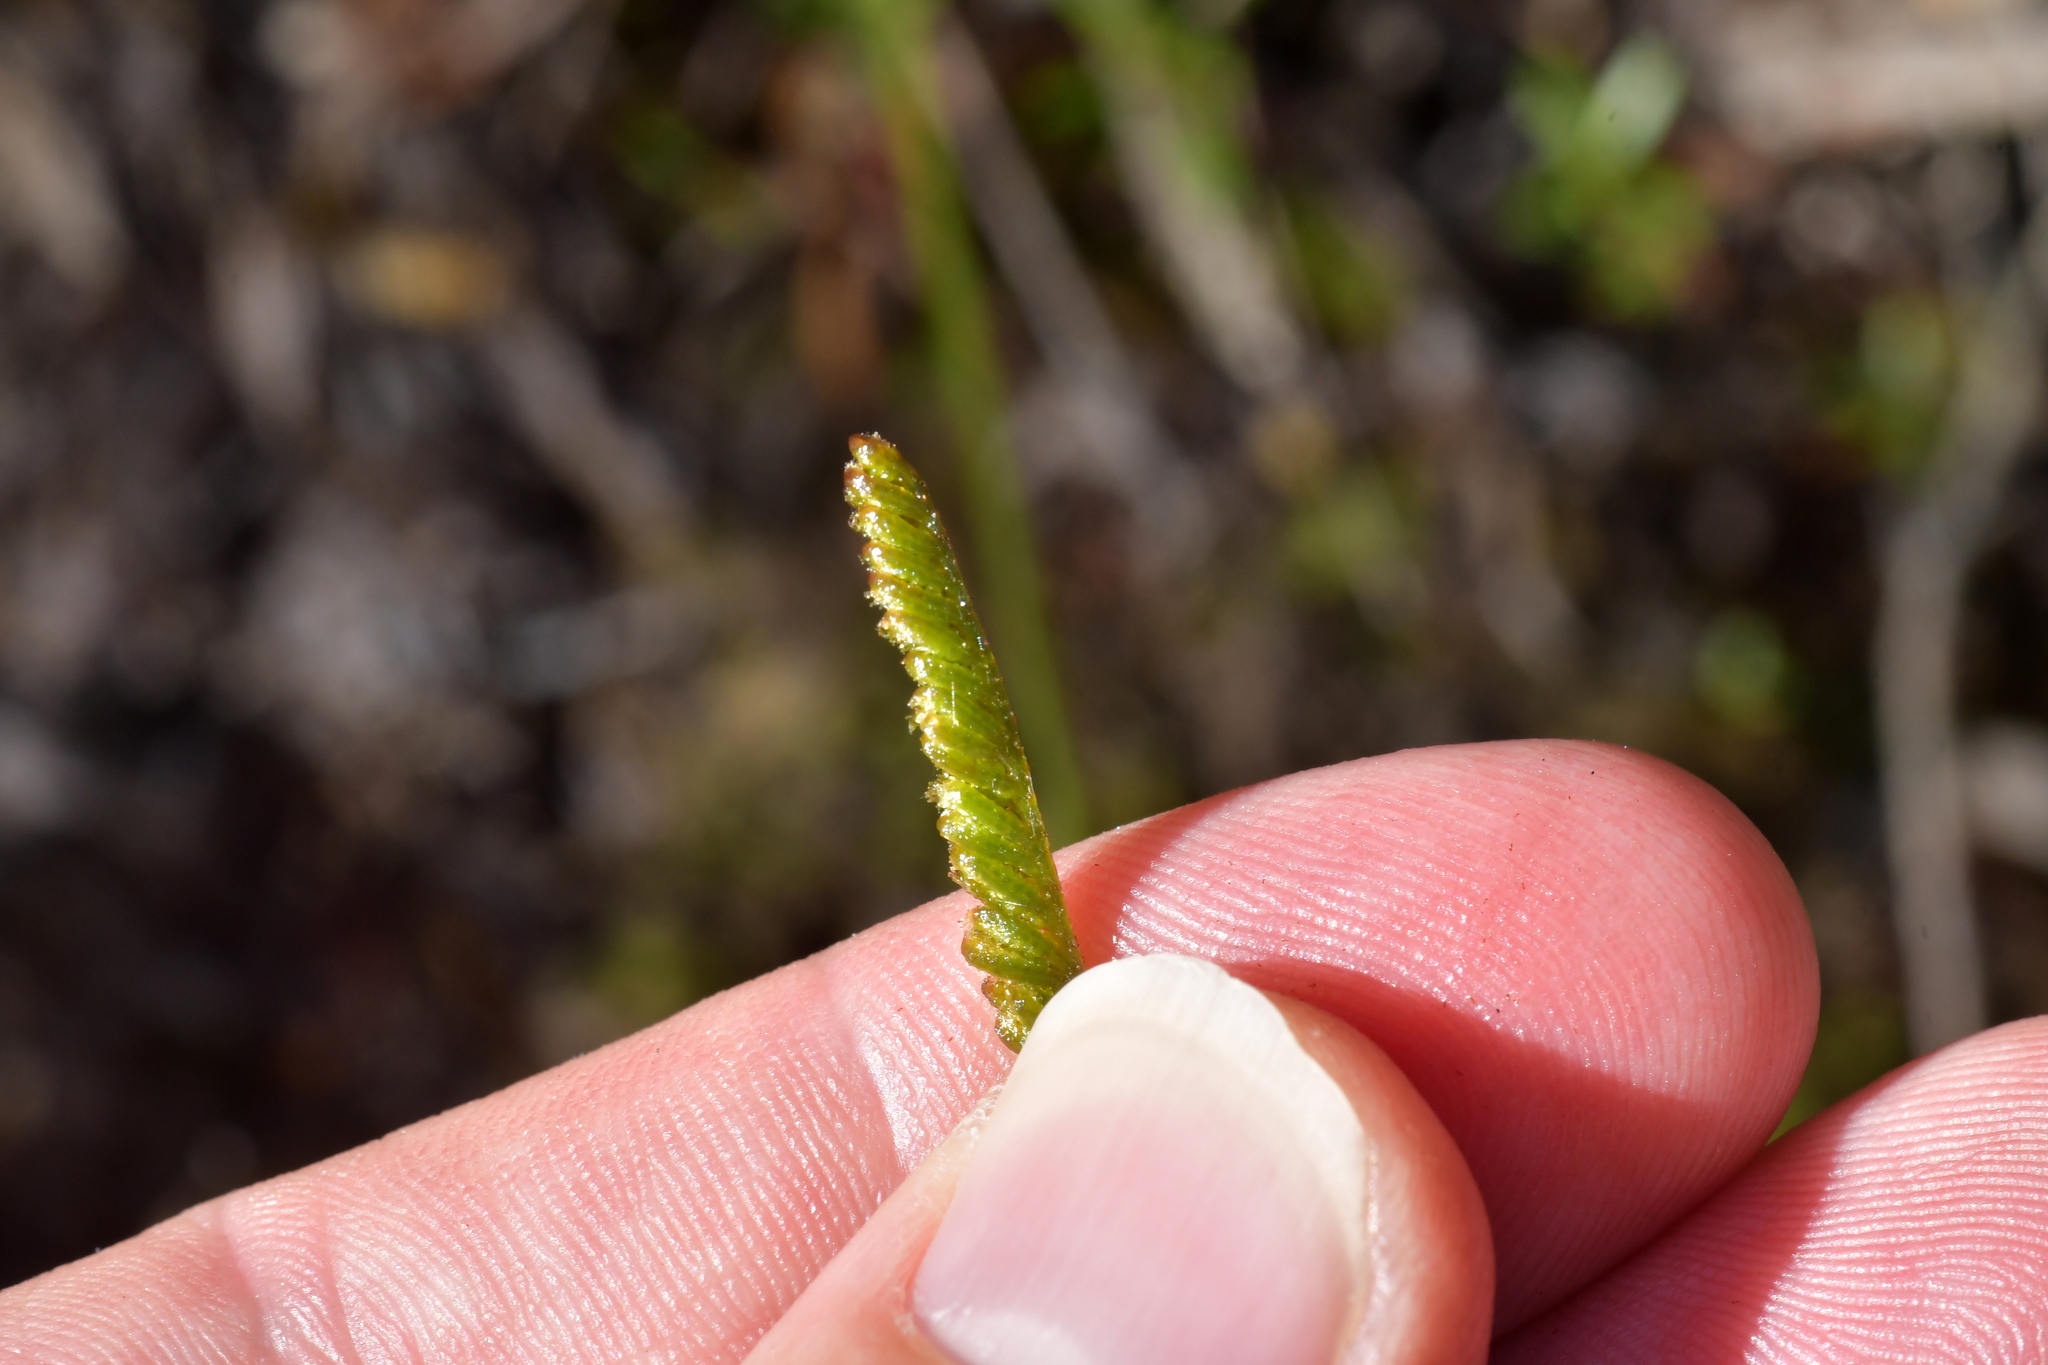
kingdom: Plantae
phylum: Tracheophyta
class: Polypodiopsida
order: Schizaeales
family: Schizaeaceae
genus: Microschizaea
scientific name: Microschizaea fistulosa
